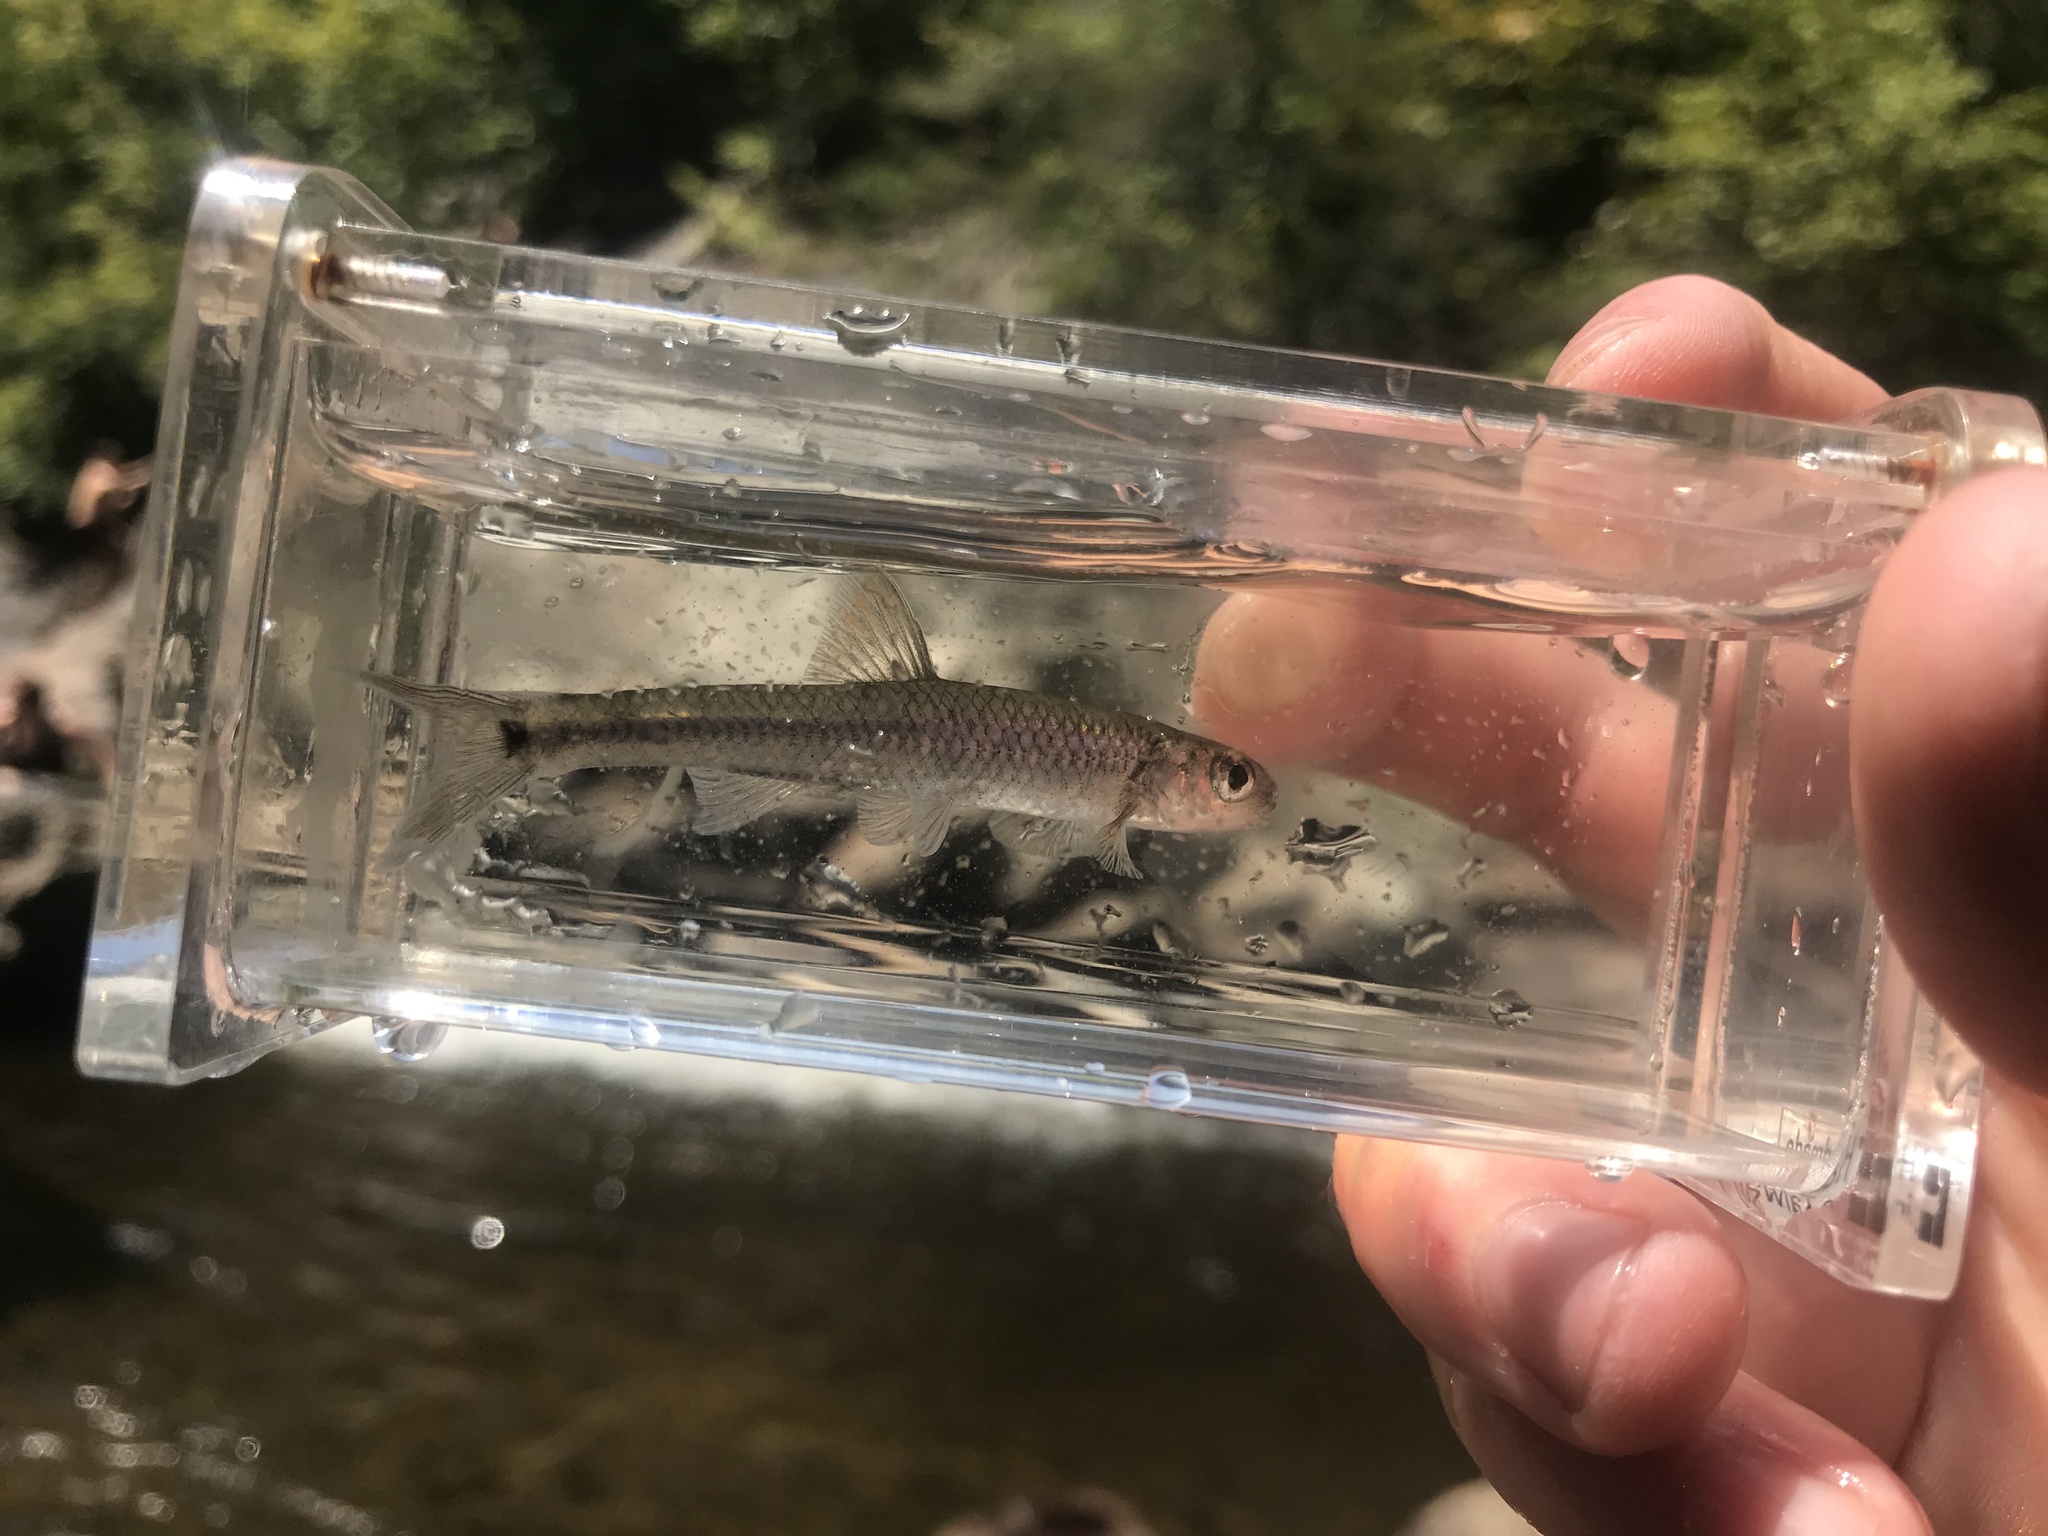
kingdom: Animalia
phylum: Chordata
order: Cypriniformes
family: Cyprinidae
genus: Notropis
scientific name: Notropis
